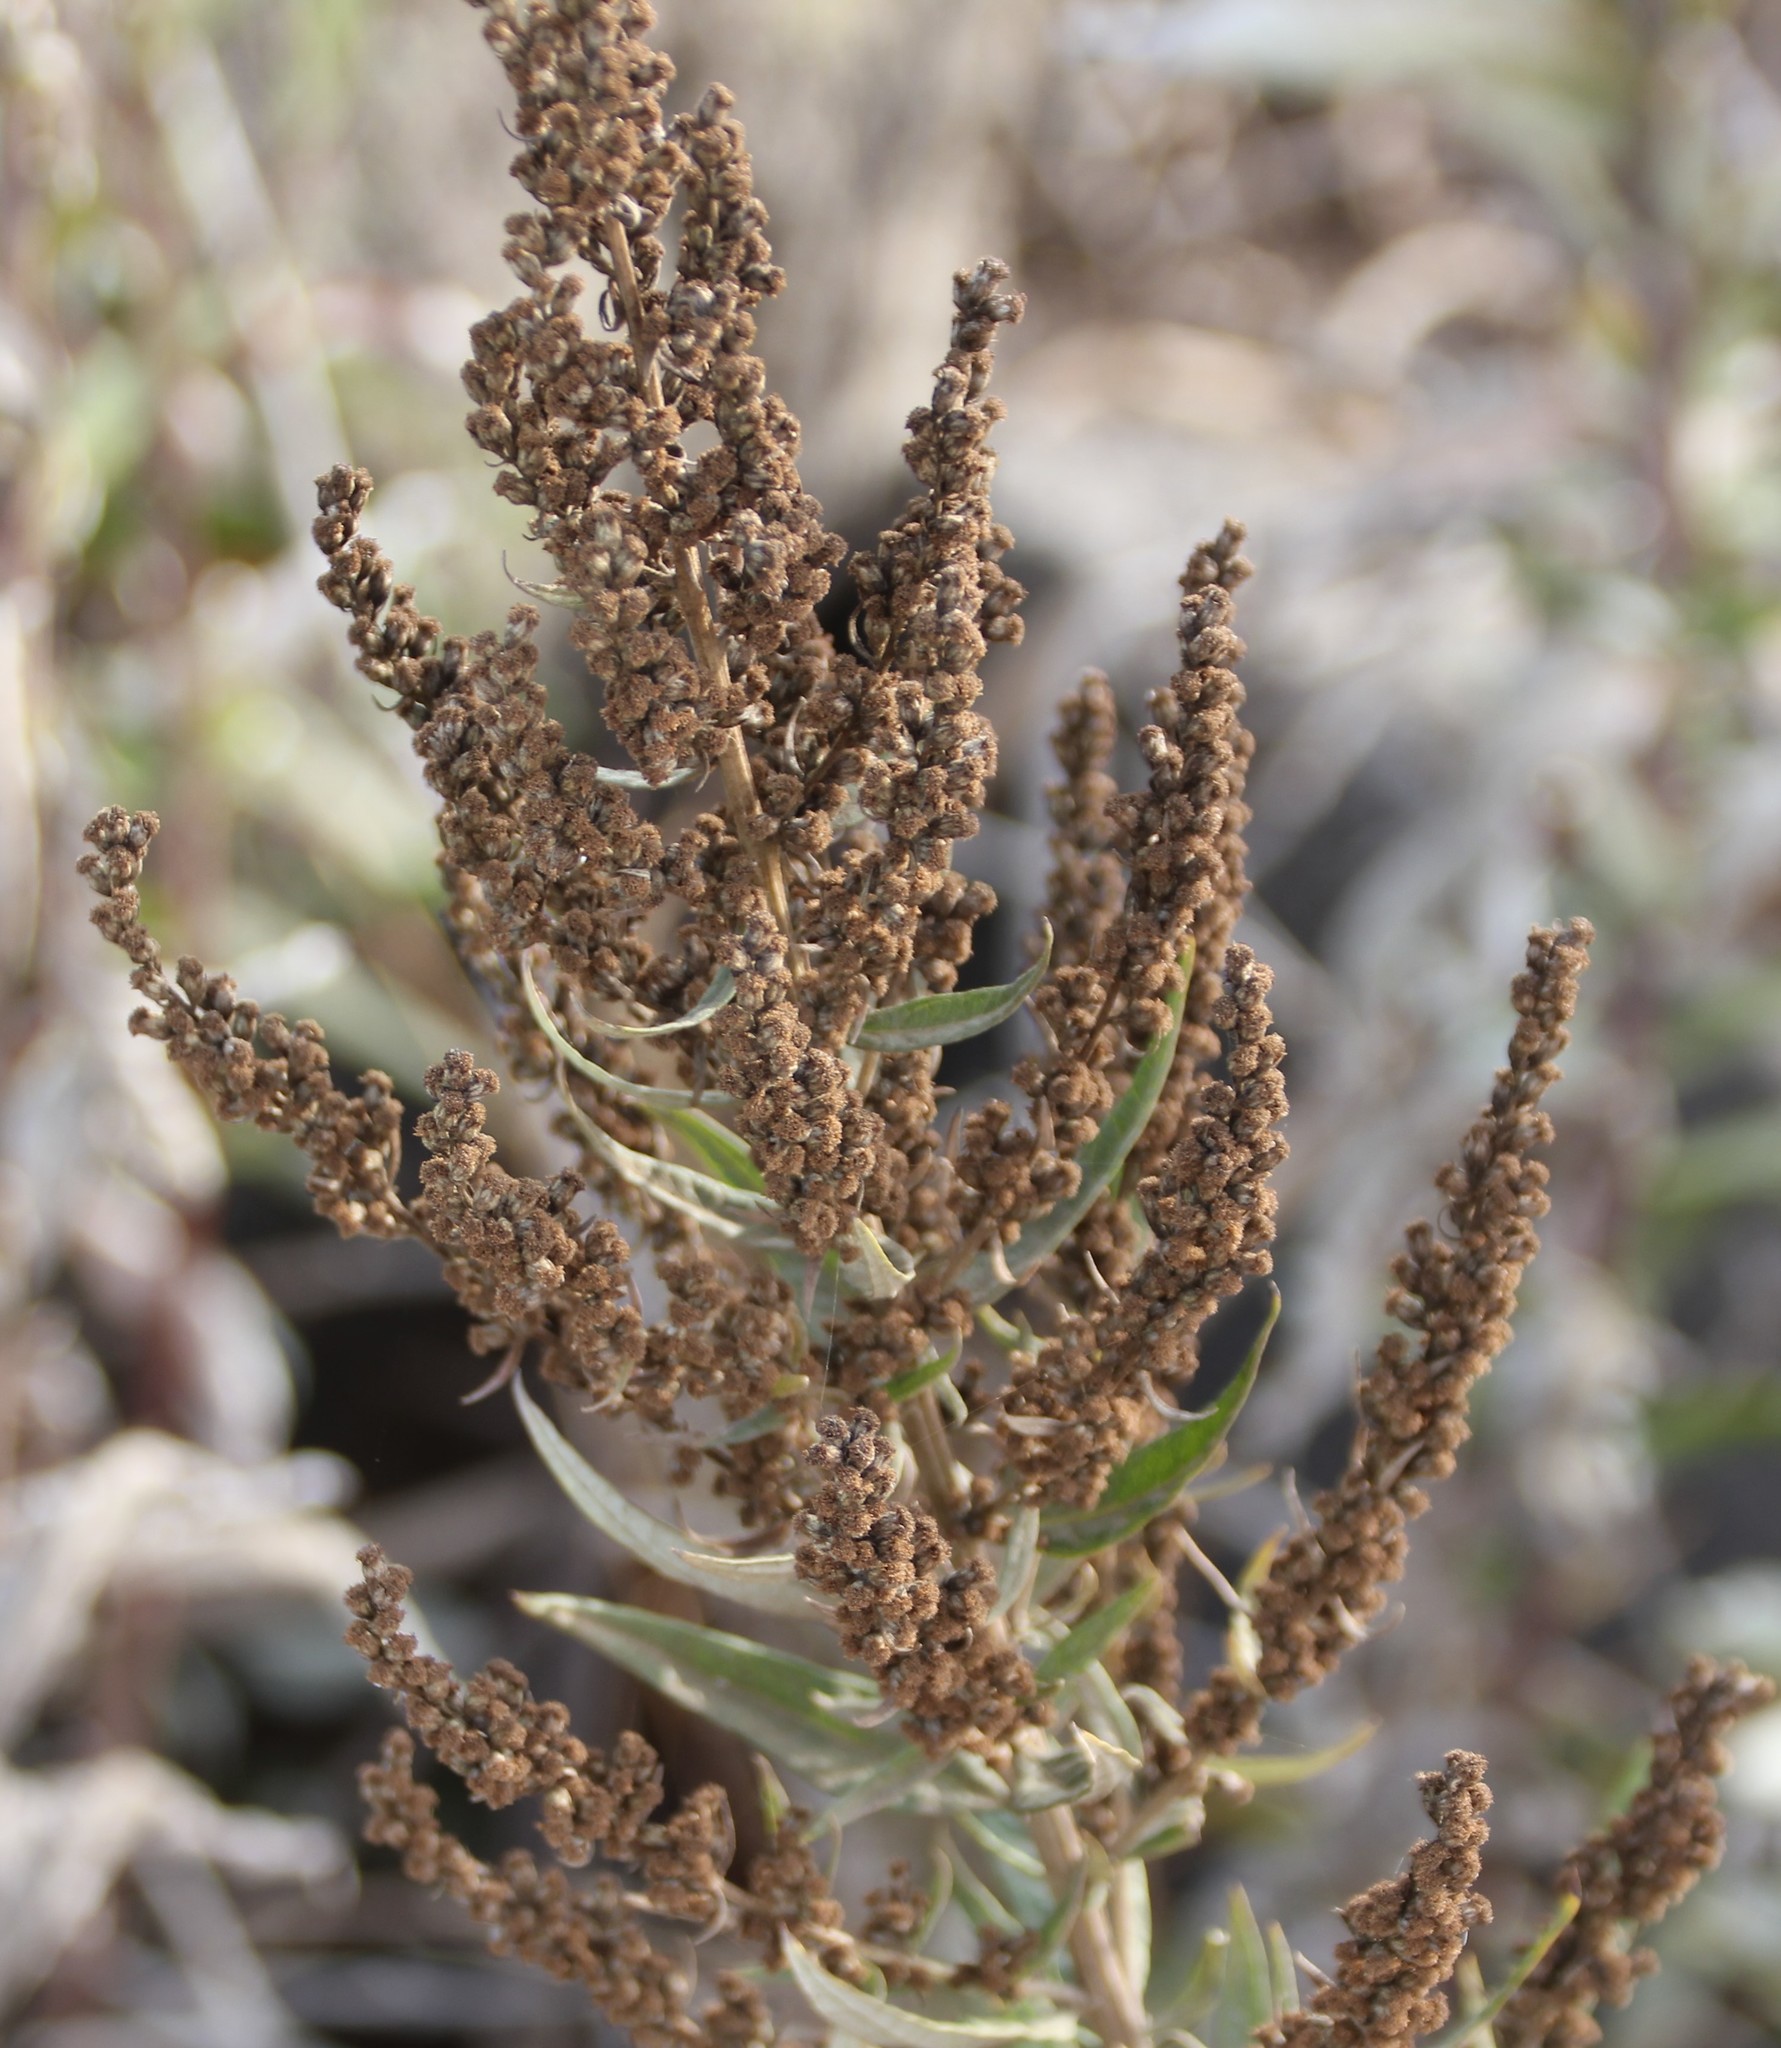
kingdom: Plantae
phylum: Tracheophyta
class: Magnoliopsida
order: Asterales
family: Asteraceae
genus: Artemisia
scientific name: Artemisia douglasiana
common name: Northwest mugwort
